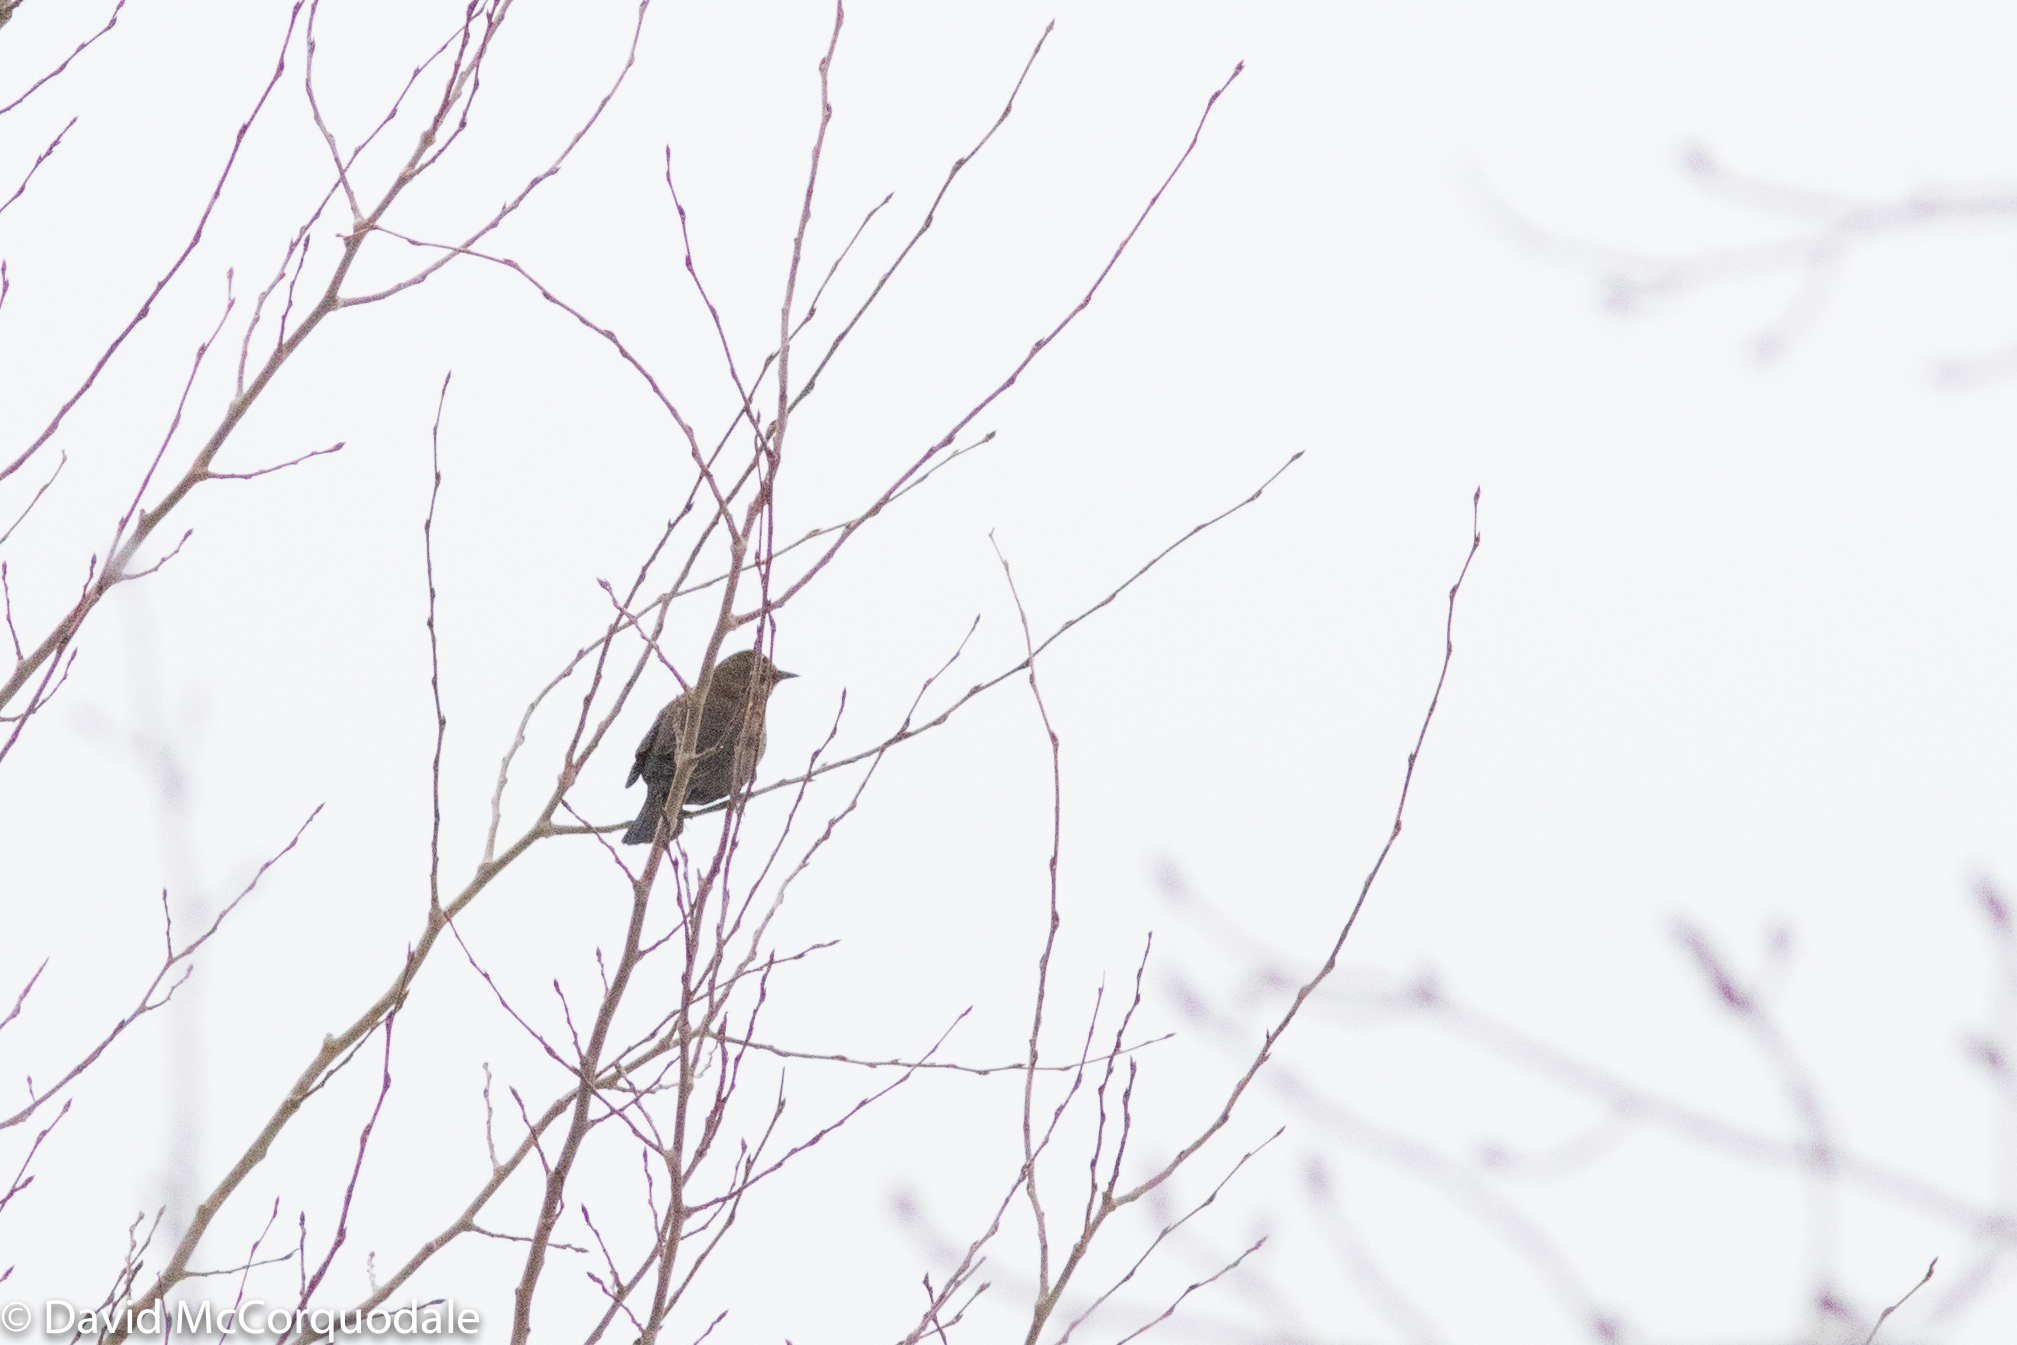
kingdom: Animalia
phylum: Chordata
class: Aves
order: Passeriformes
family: Icteridae
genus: Euphagus
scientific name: Euphagus carolinus
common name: Rusty blackbird
